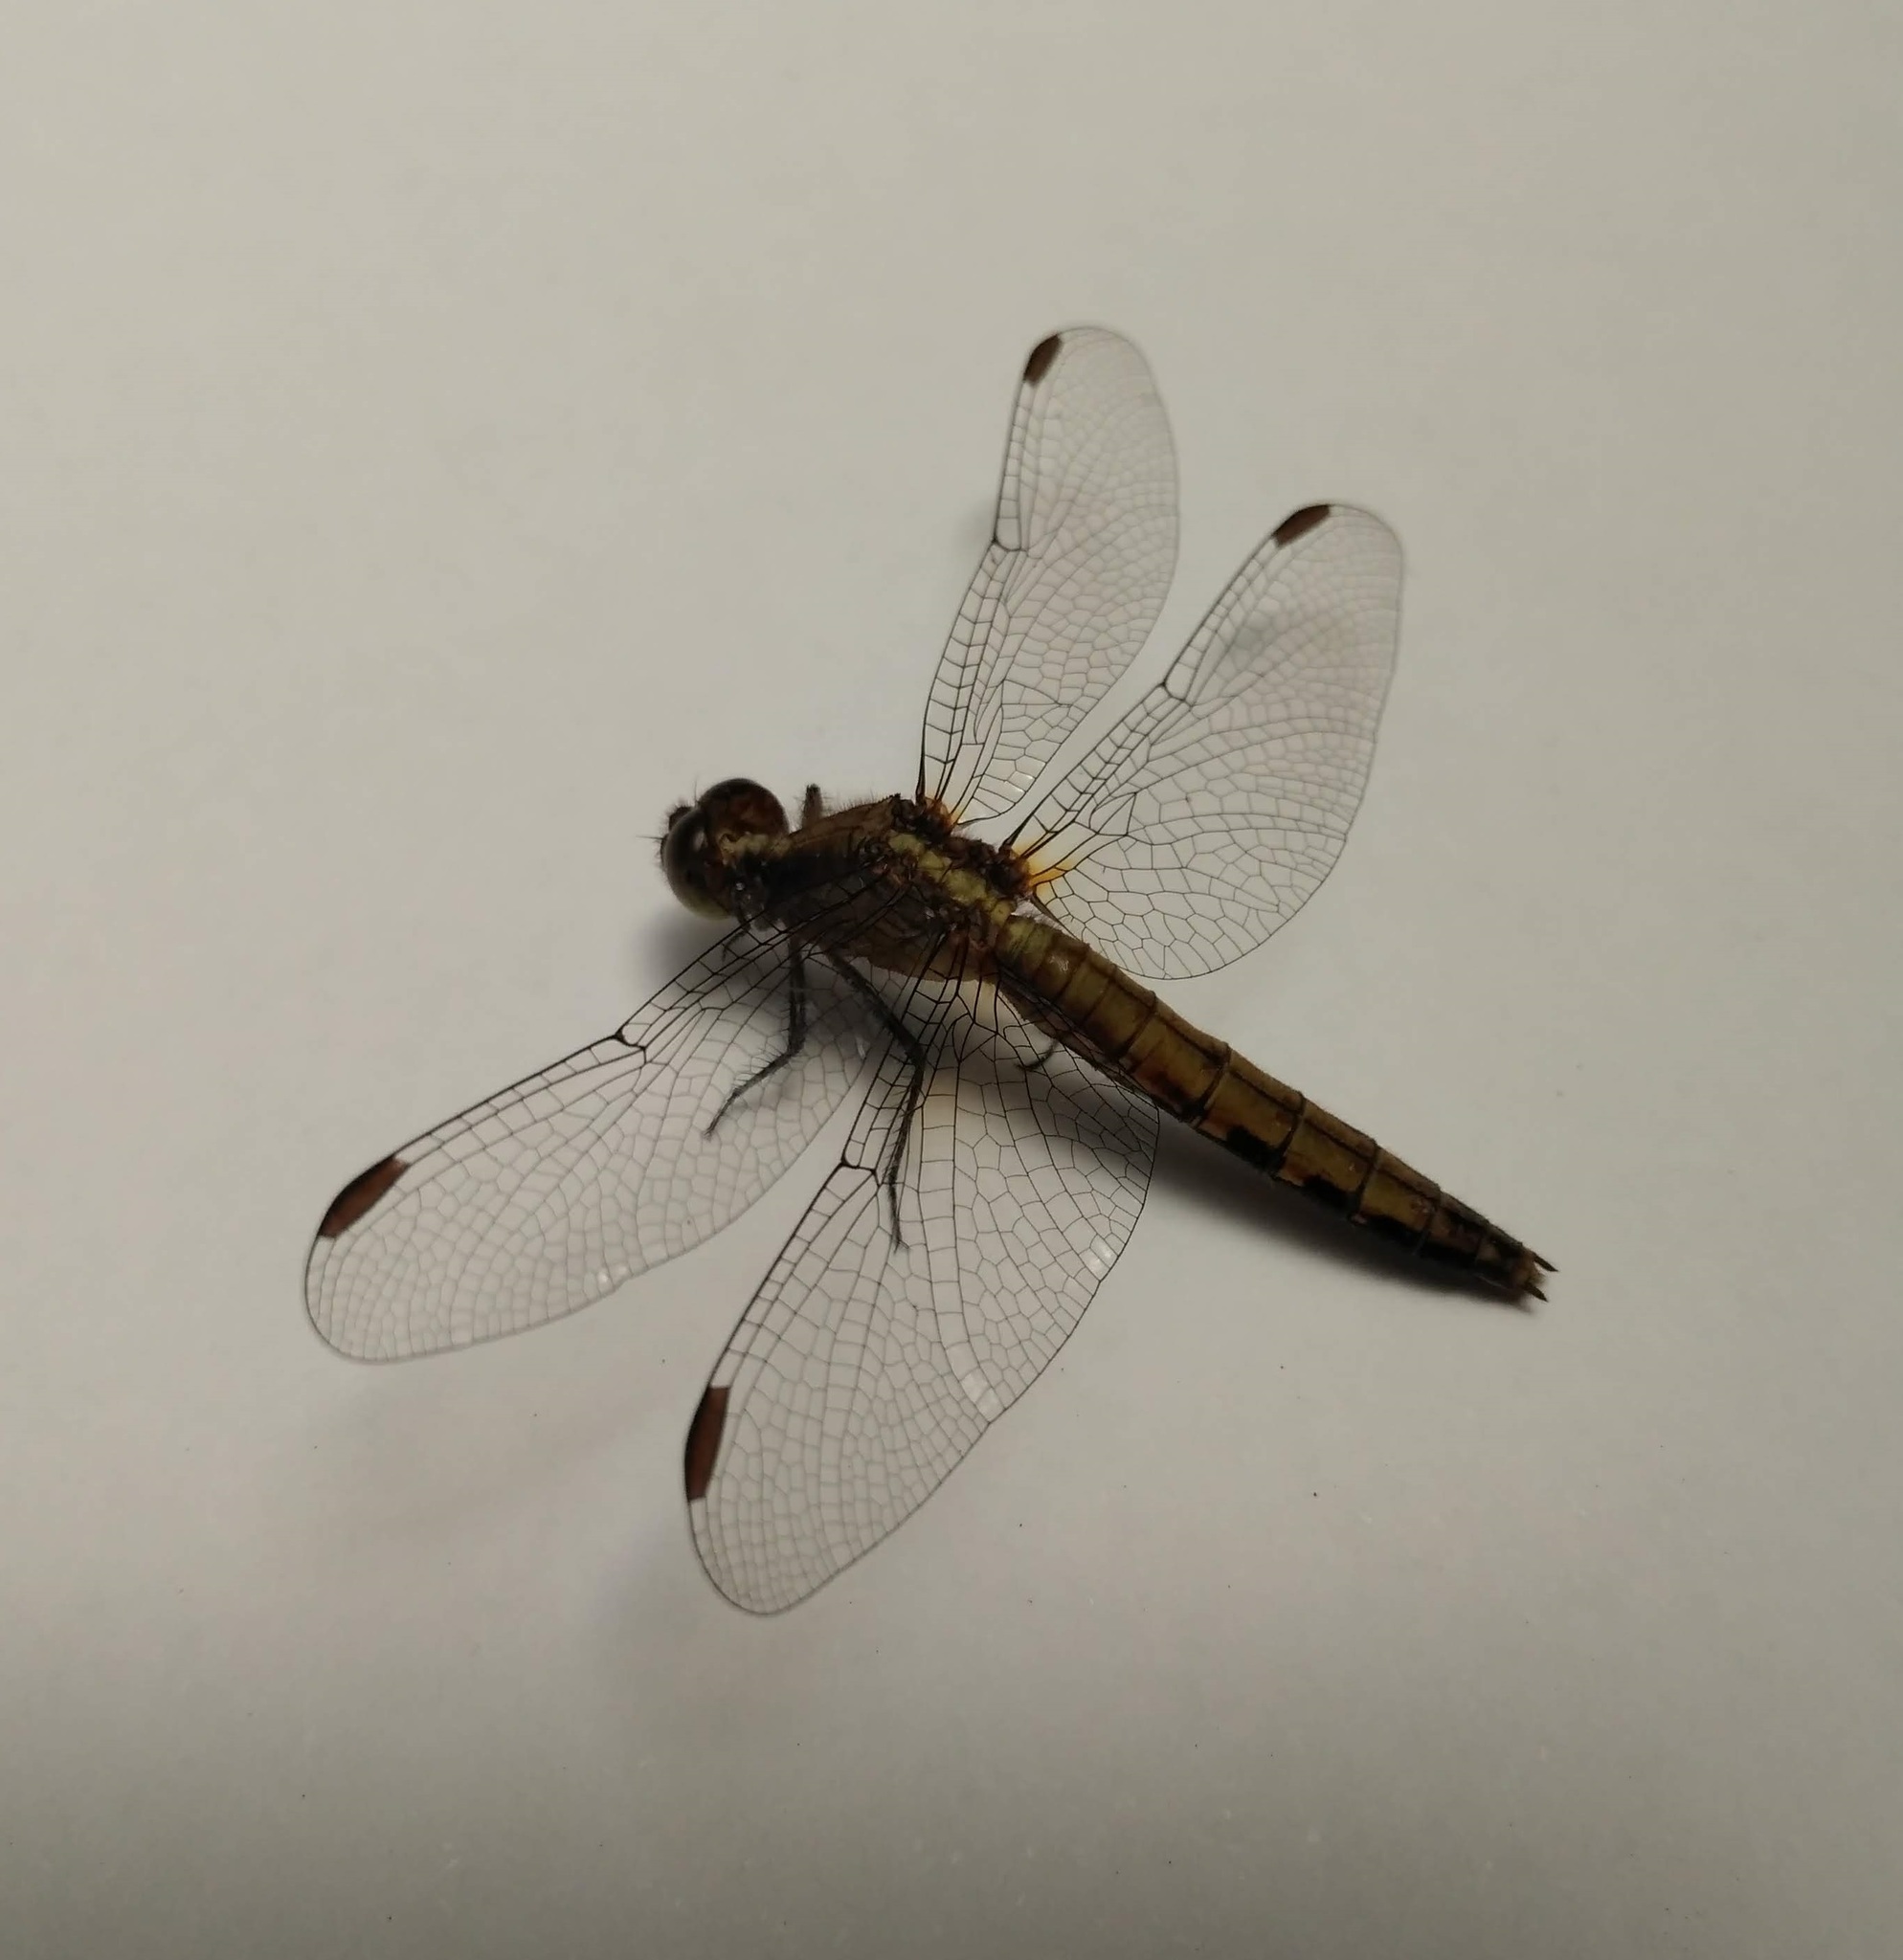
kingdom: Animalia
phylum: Arthropoda
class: Insecta
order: Odonata
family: Libellulidae
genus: Erythrodiplax
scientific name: Erythrodiplax connata
